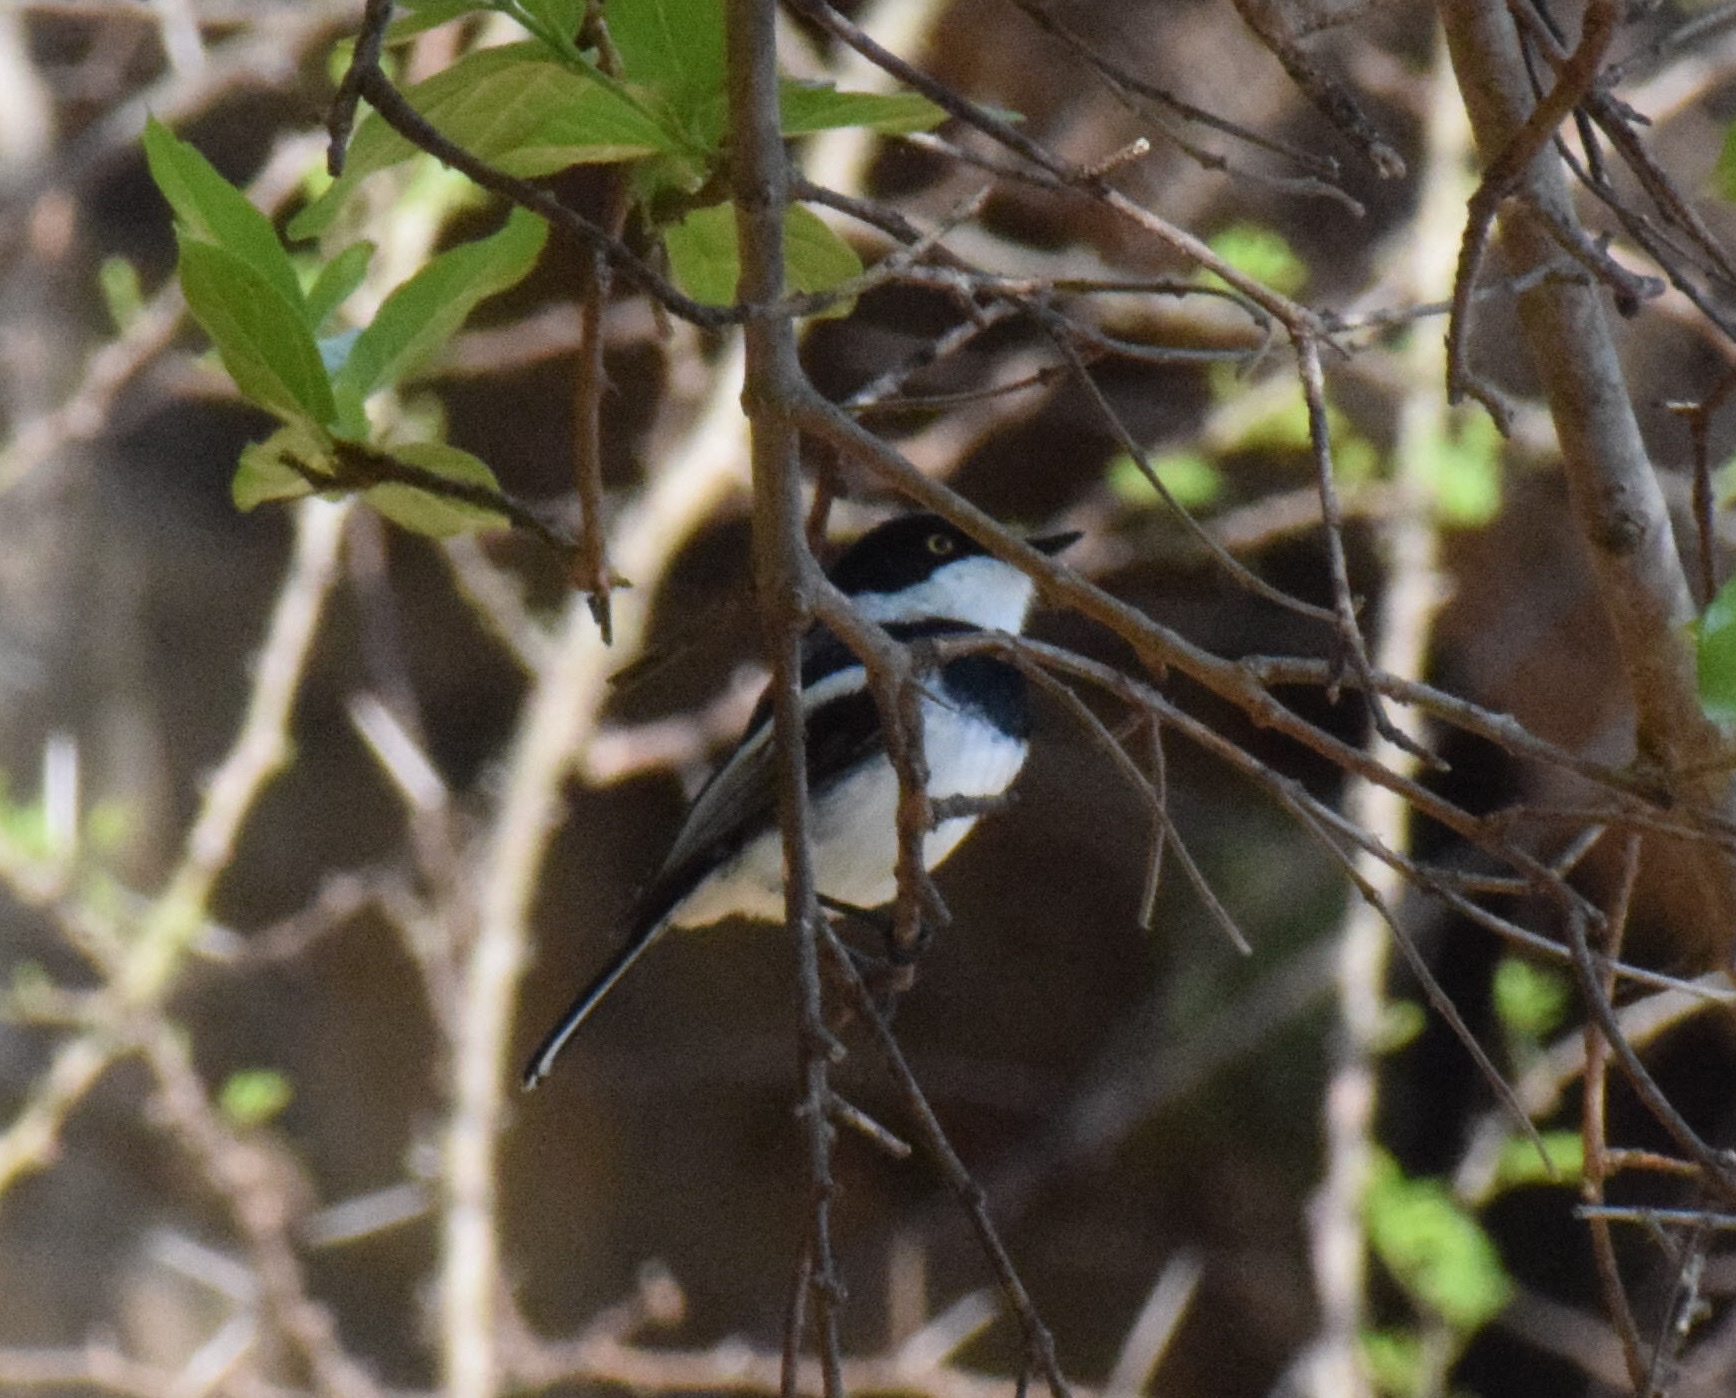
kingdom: Animalia
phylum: Chordata
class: Aves
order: Passeriformes
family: Platysteiridae
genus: Batis
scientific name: Batis molitor
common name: Chinspot batis
